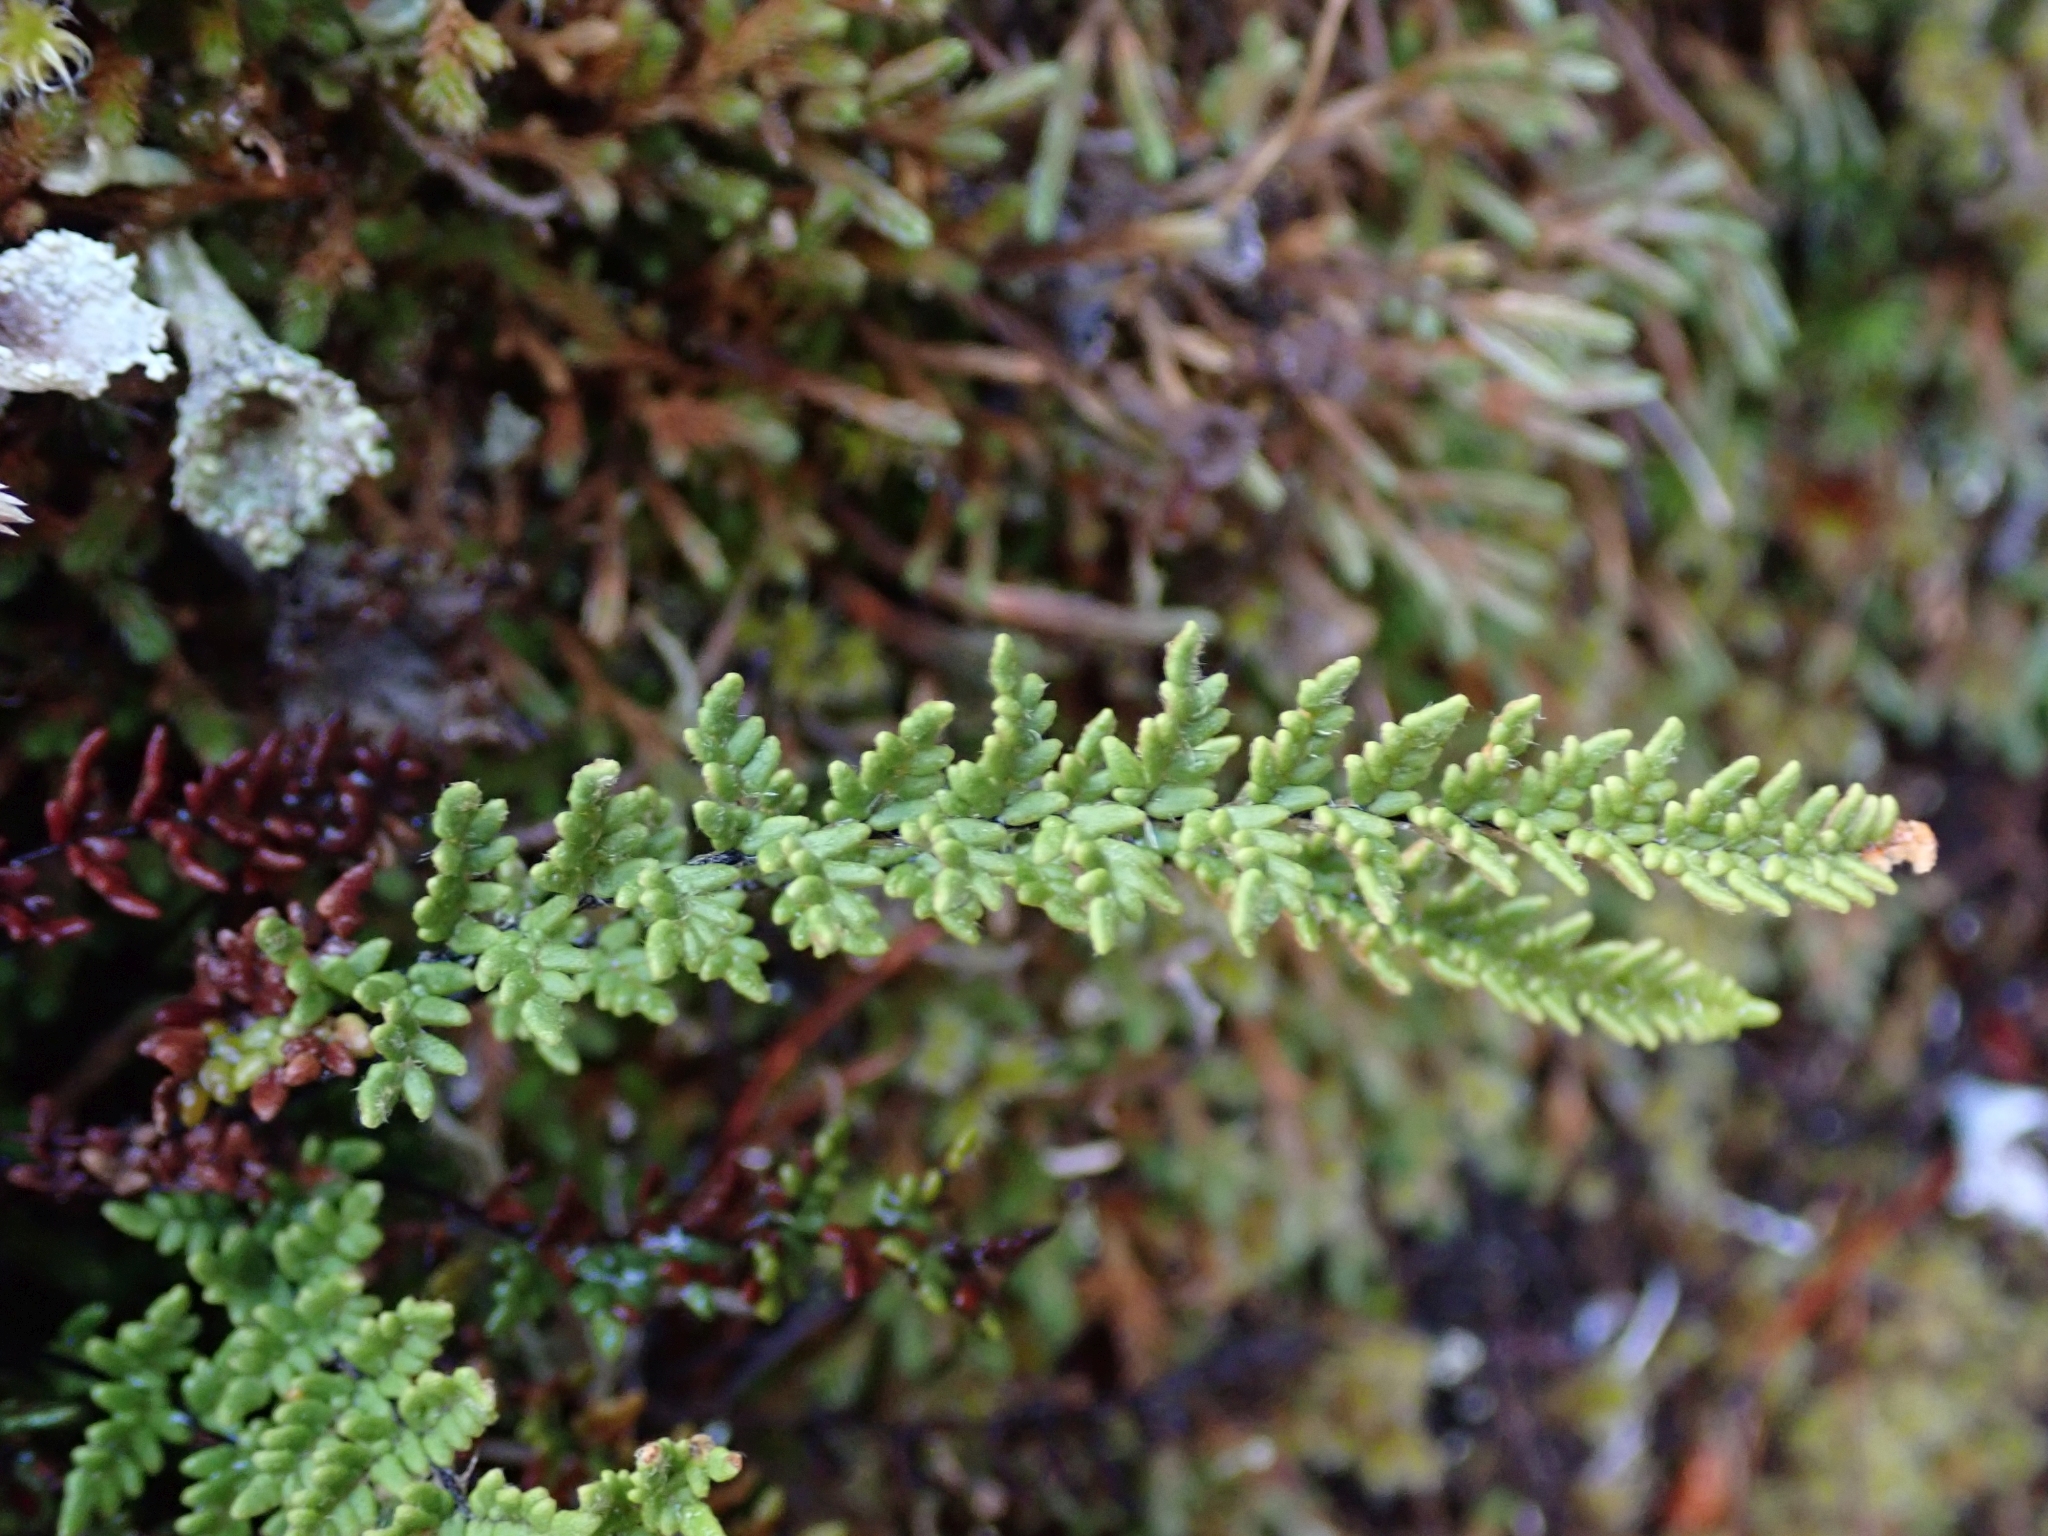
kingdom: Plantae
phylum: Tracheophyta
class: Polypodiopsida
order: Polypodiales
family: Pteridaceae
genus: Myriopteris
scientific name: Myriopteris gracillima
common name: Lace fern
